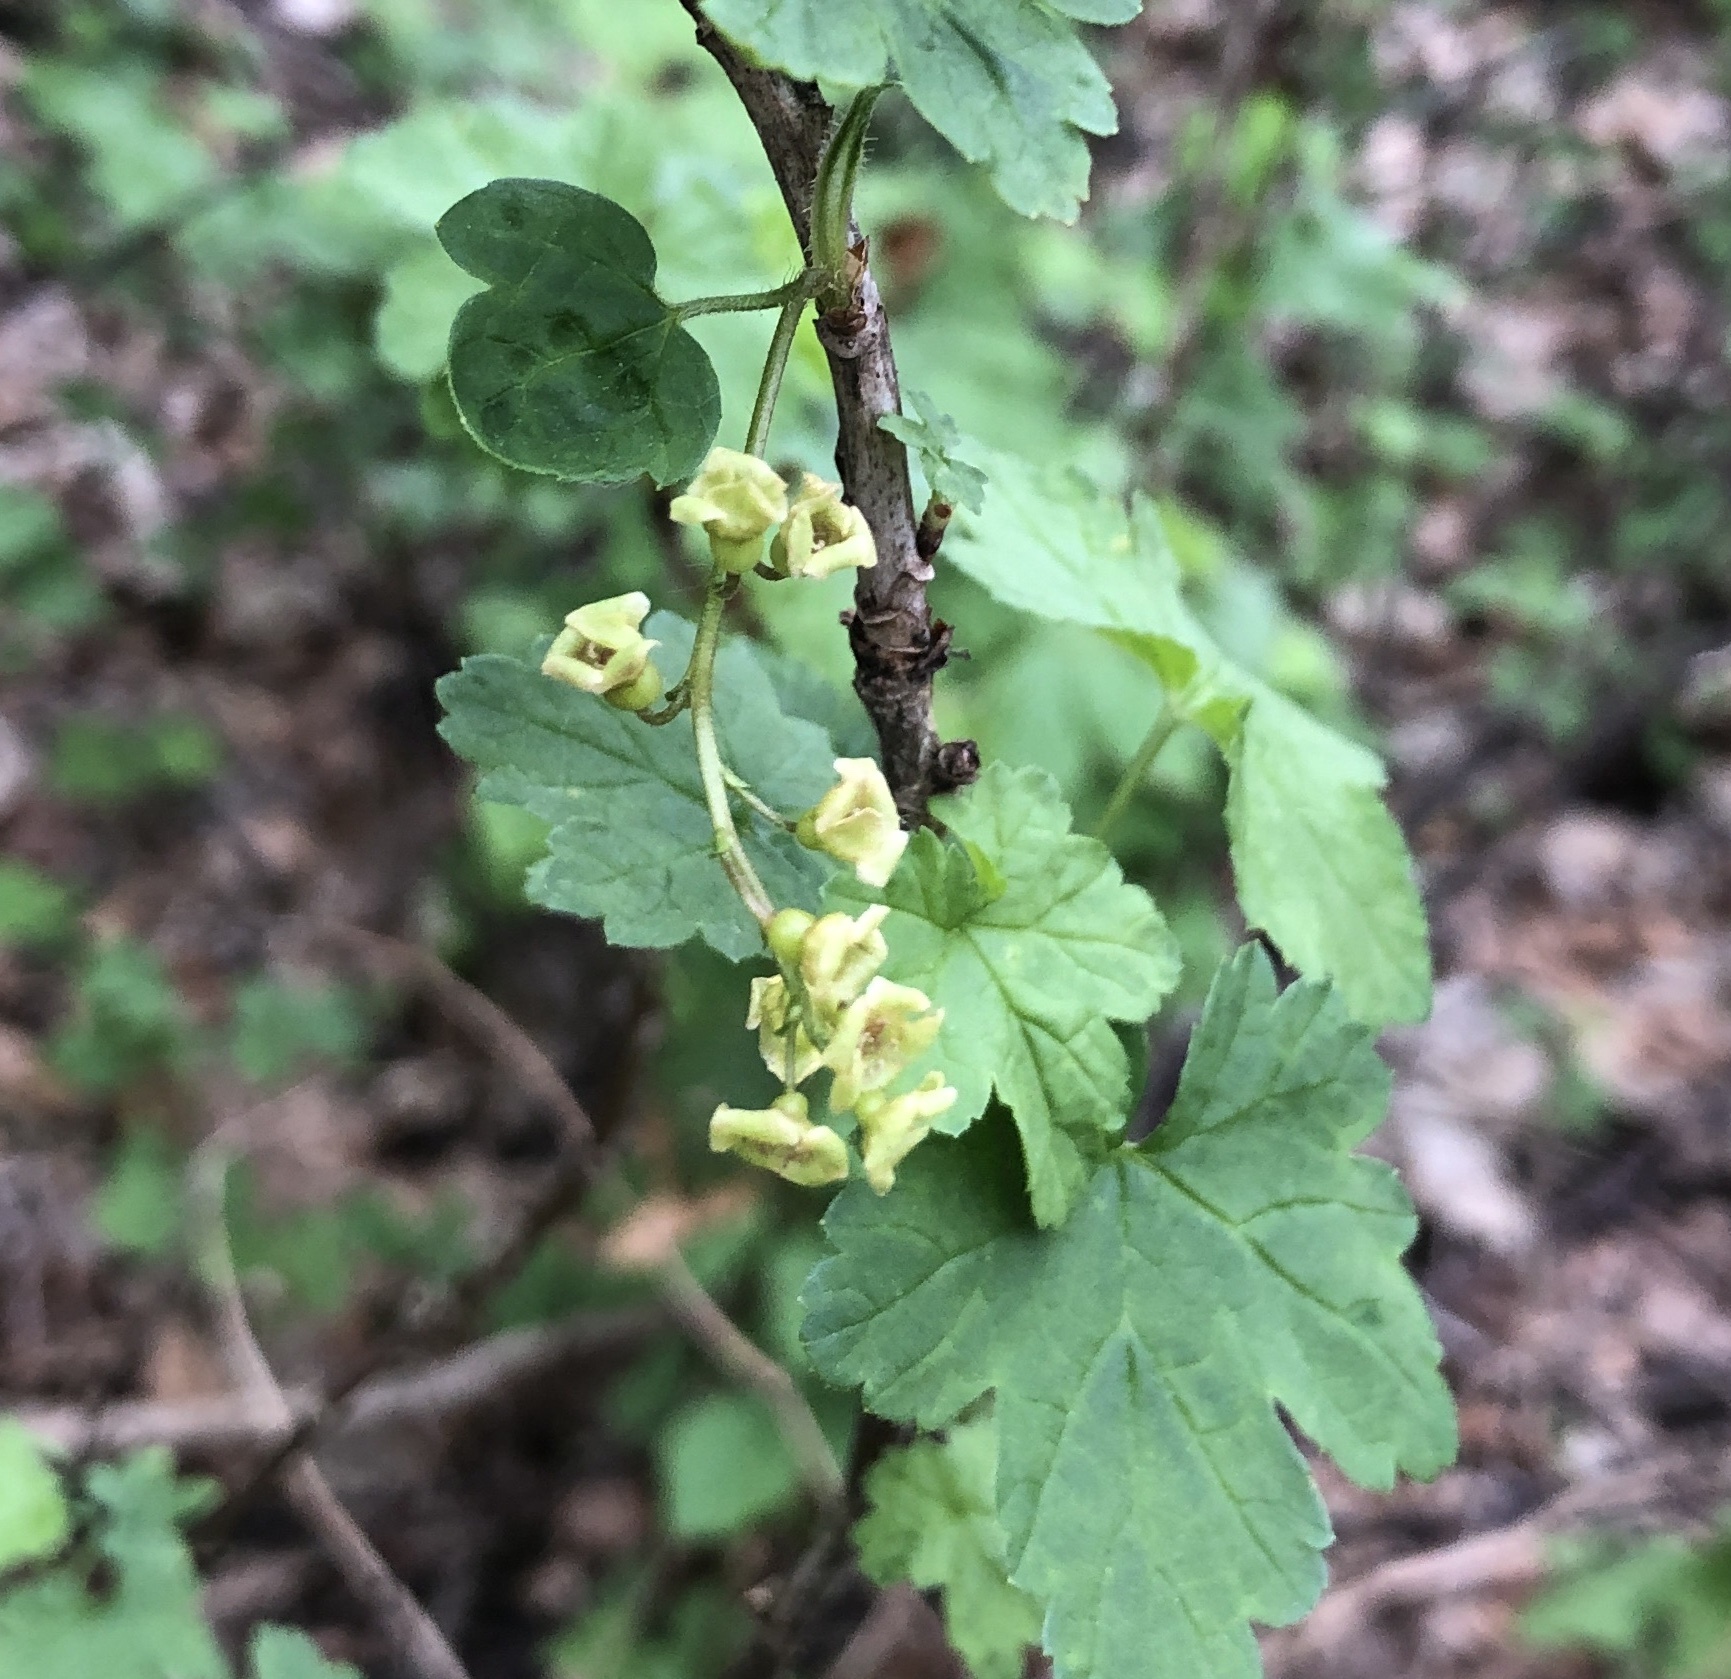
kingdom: Plantae
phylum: Tracheophyta
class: Magnoliopsida
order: Saxifragales
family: Grossulariaceae
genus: Ribes
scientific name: Ribes rubrum
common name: Red currant
